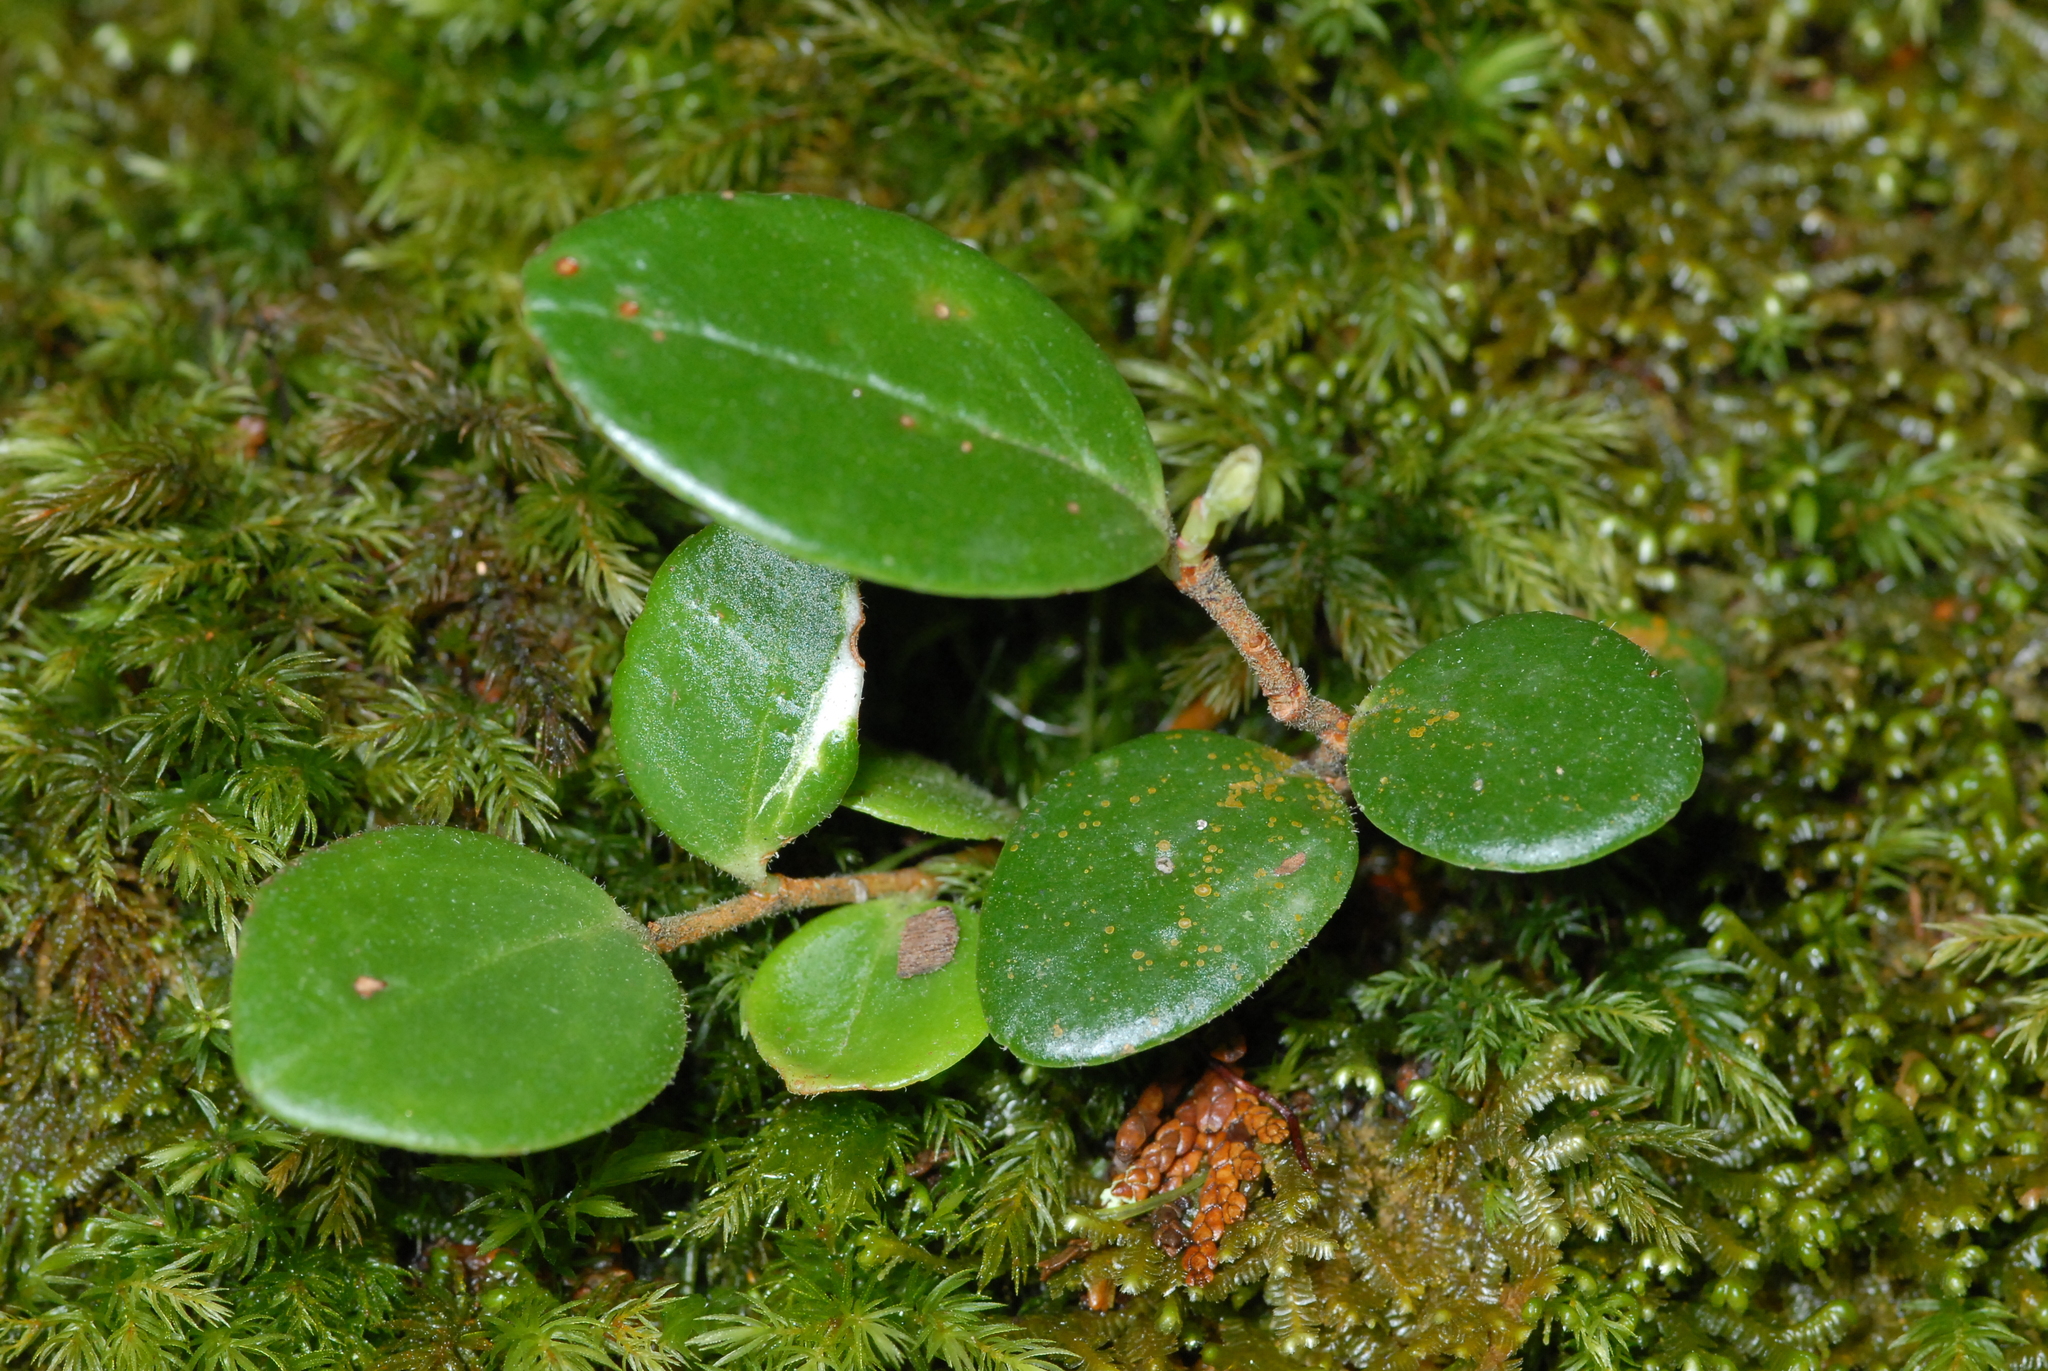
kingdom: Plantae
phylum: Tracheophyta
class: Magnoliopsida
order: Ericales
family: Ericaceae
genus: Vaccinium
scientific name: Vaccinium emarginatum
